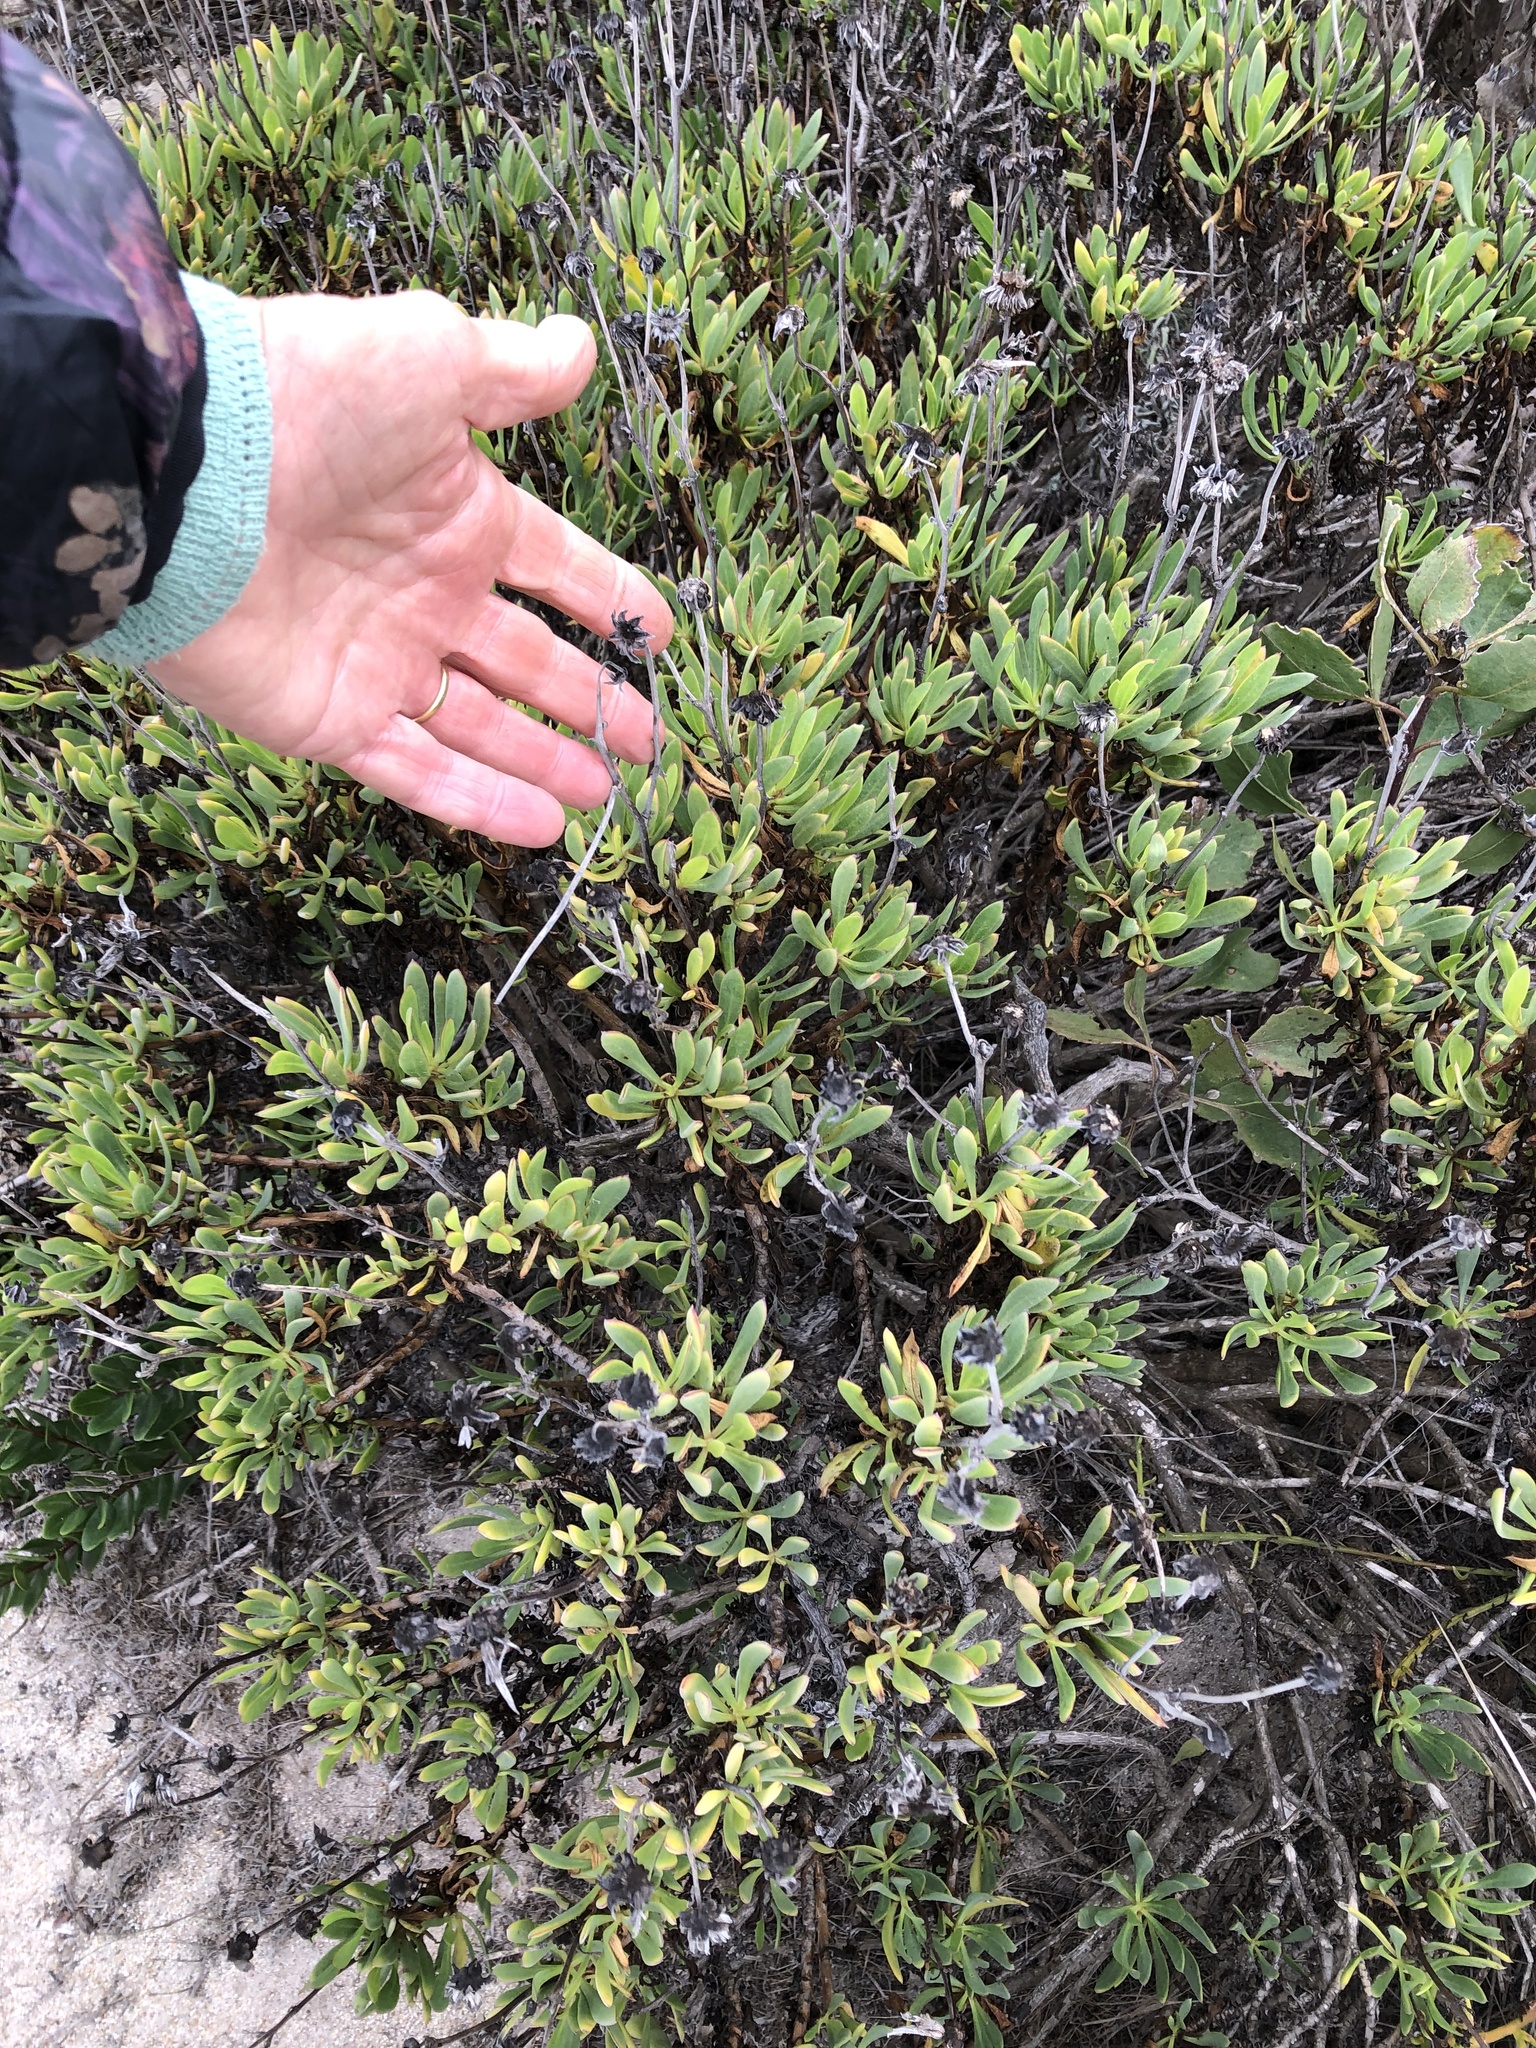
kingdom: Plantae
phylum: Tracheophyta
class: Magnoliopsida
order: Asterales
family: Asteraceae
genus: Othonna
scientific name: Othonna coronopifolia
